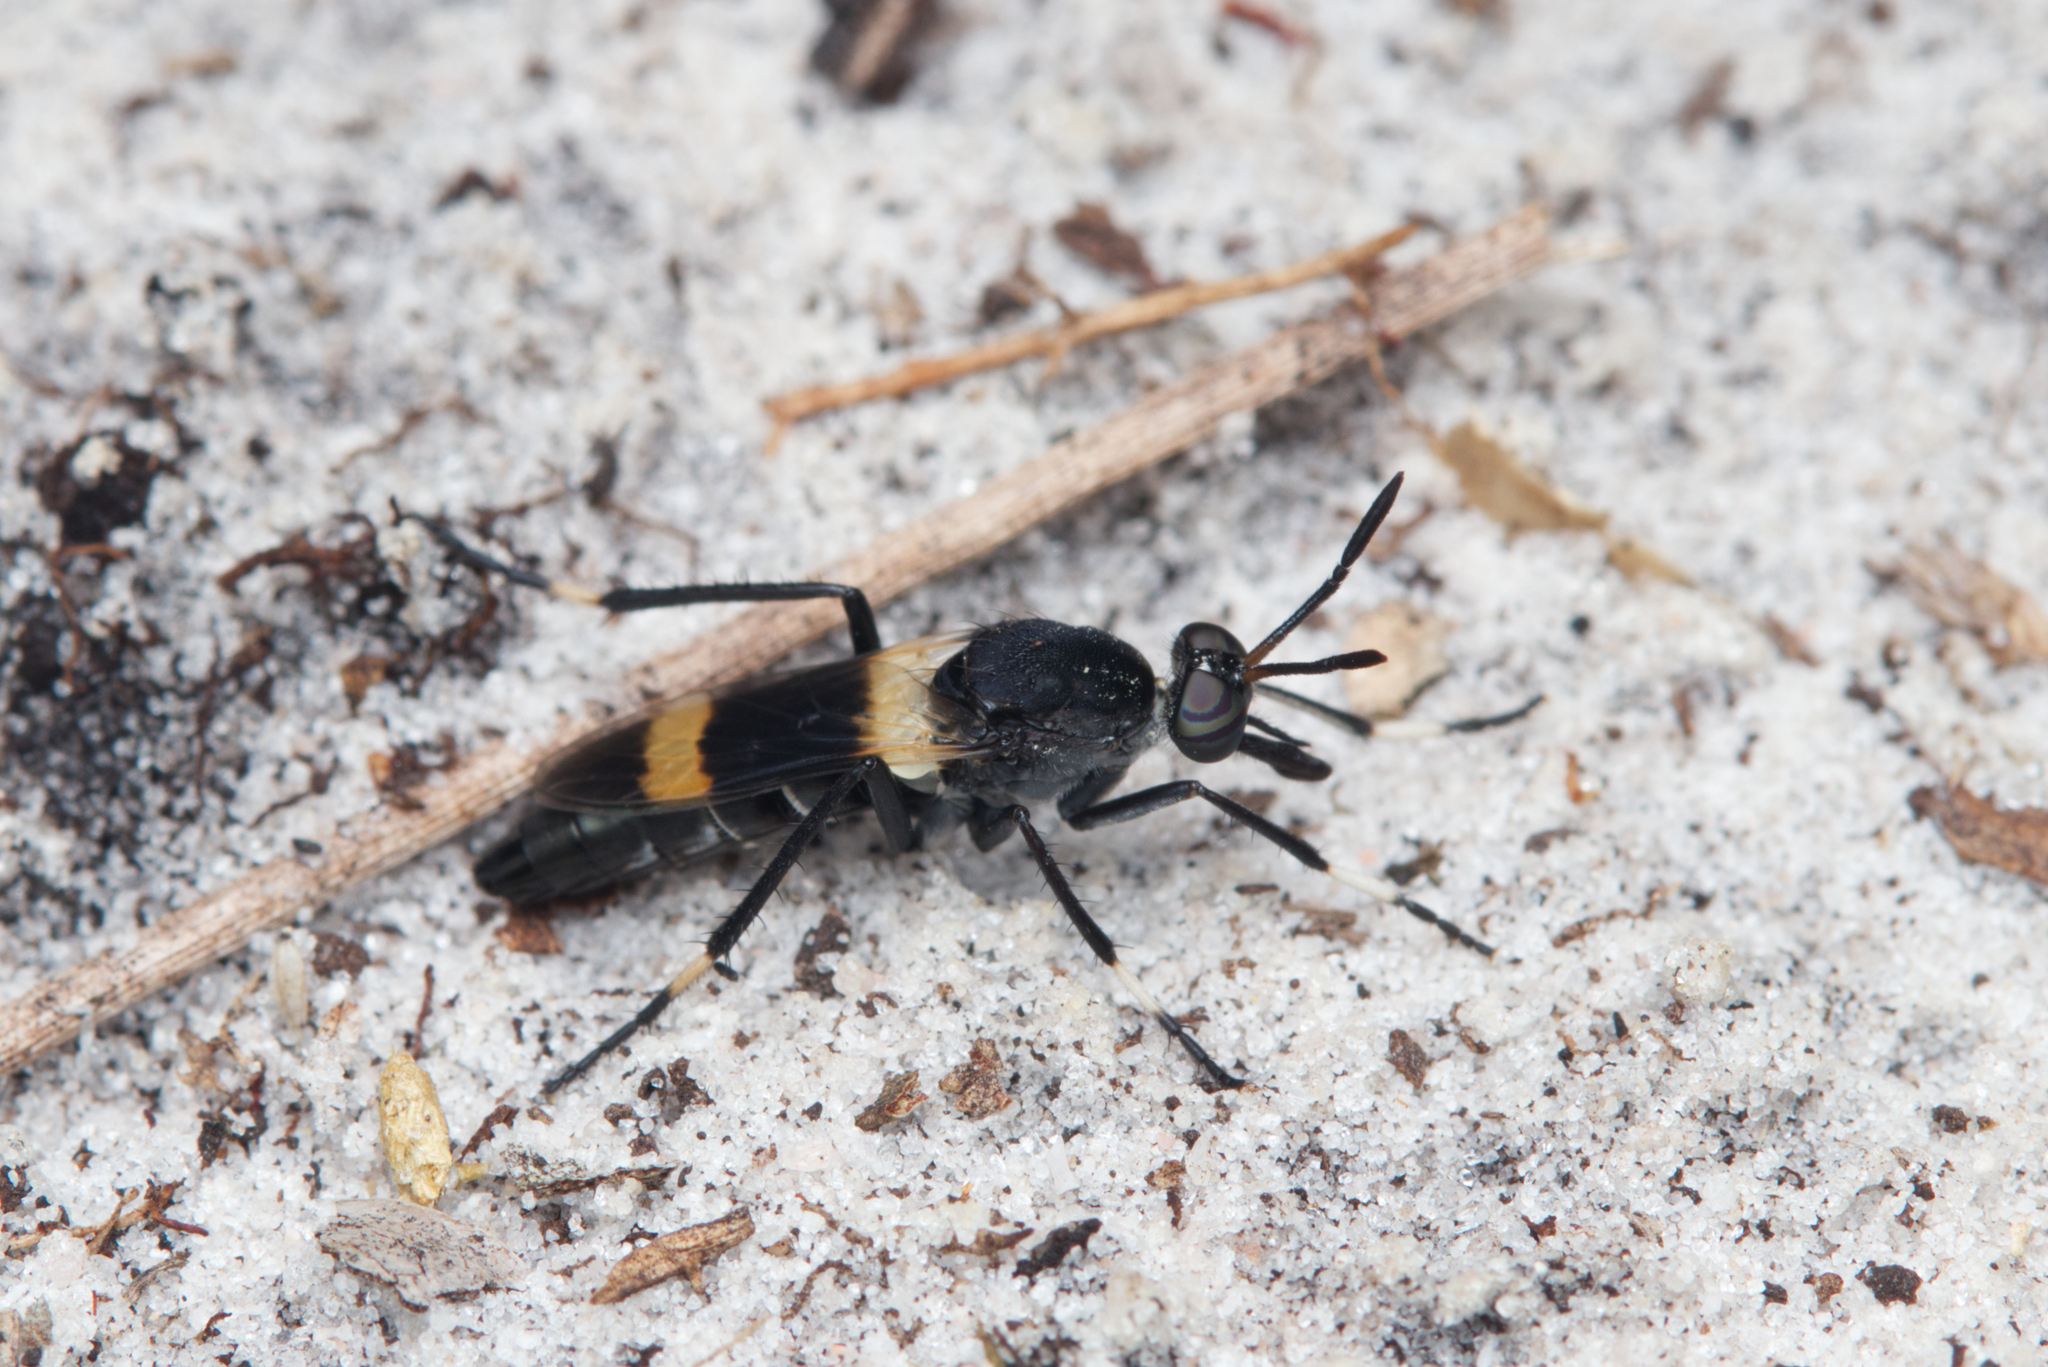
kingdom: Animalia
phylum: Arthropoda
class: Insecta
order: Diptera
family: Therevidae
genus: Agapophytus
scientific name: Agapophytus albobasalis
